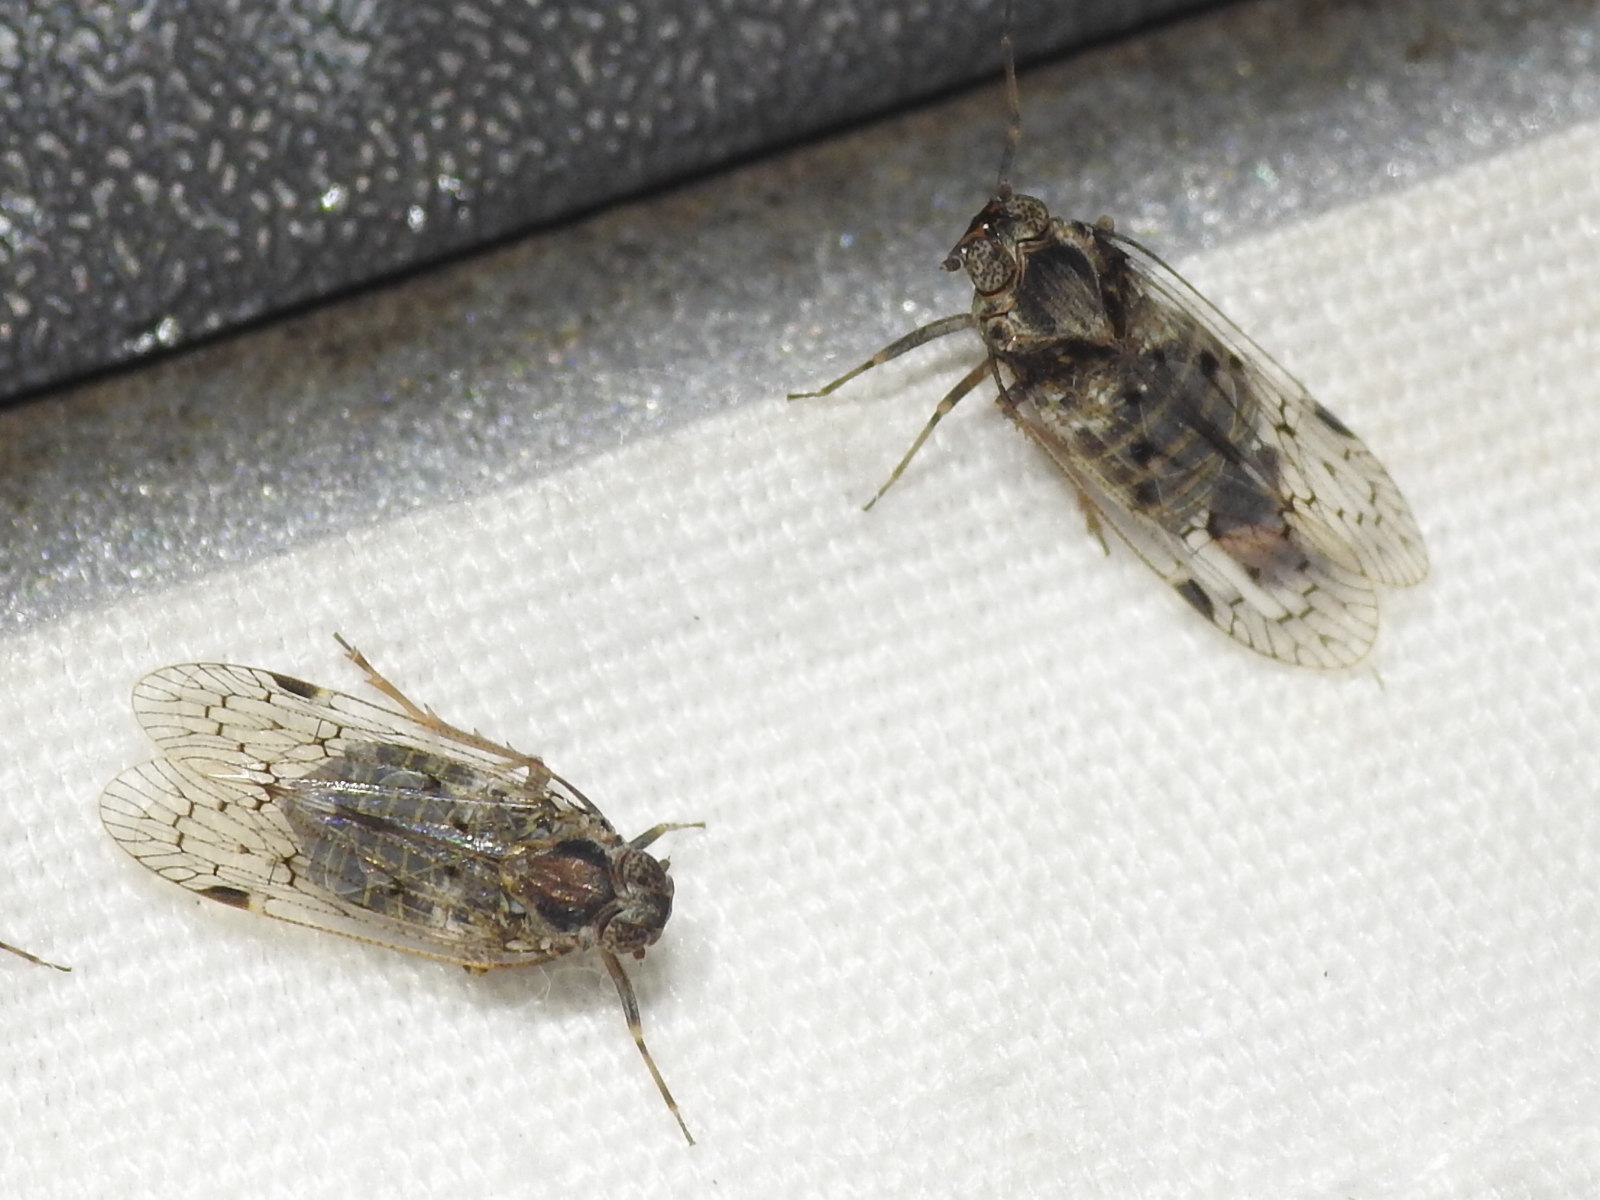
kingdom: Animalia
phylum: Arthropoda
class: Insecta
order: Hemiptera
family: Cixiidae
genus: Melanoliarus
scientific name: Melanoliarus aridus
